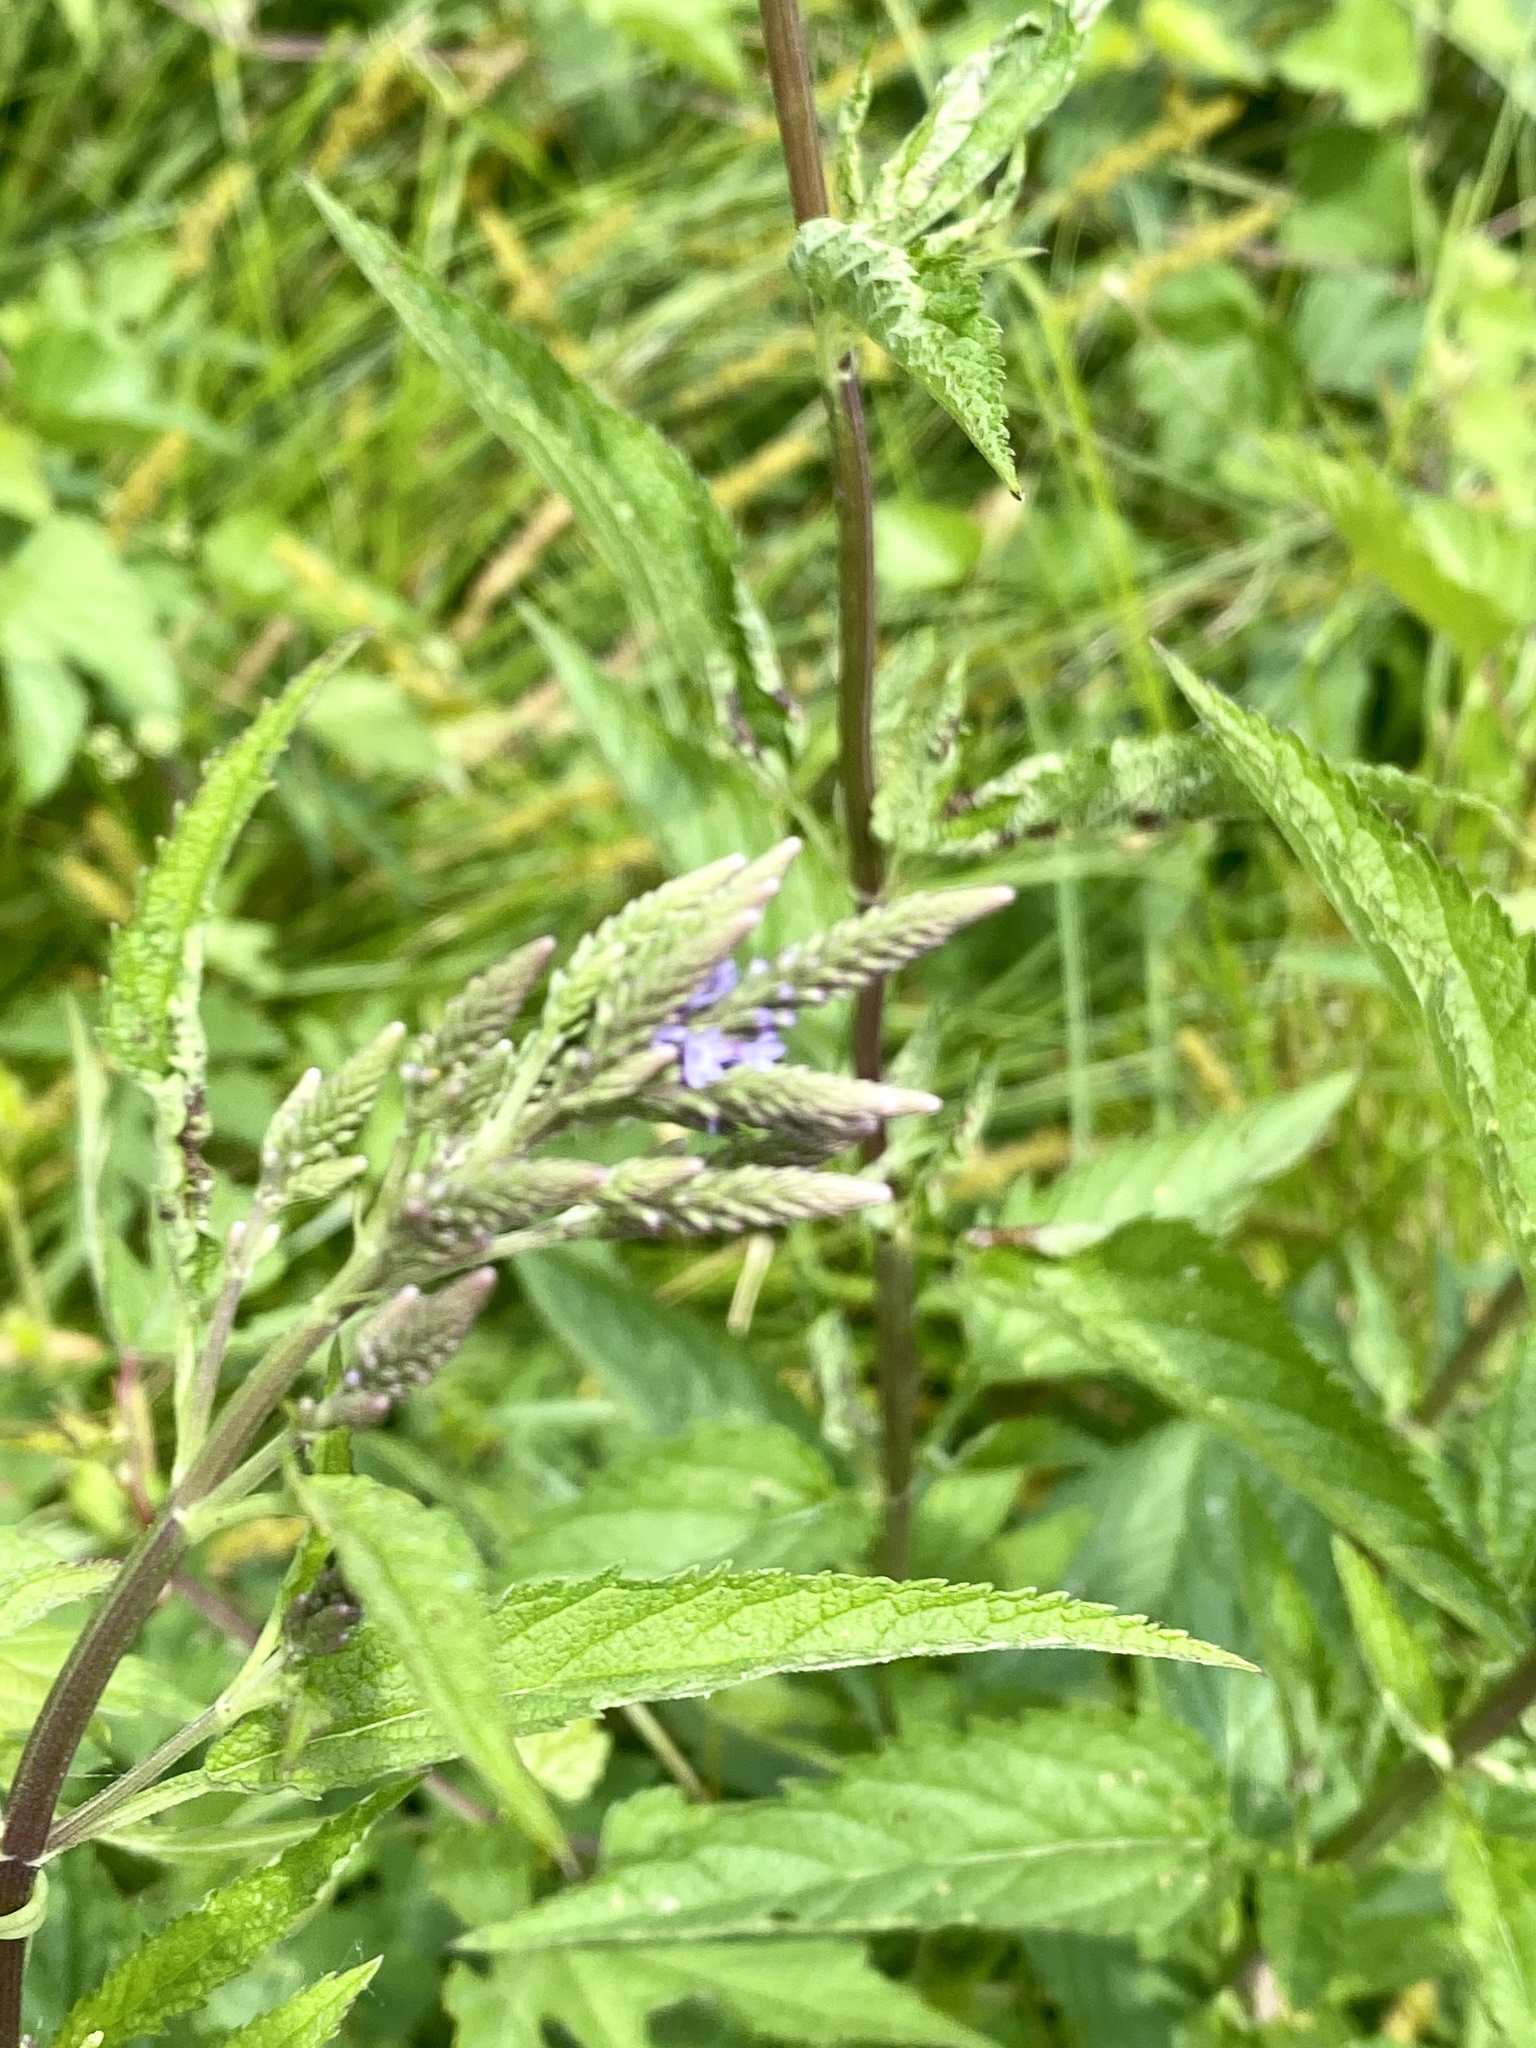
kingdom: Plantae
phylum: Tracheophyta
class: Magnoliopsida
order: Lamiales
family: Verbenaceae
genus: Verbena
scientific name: Verbena hastata
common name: American blue vervain
